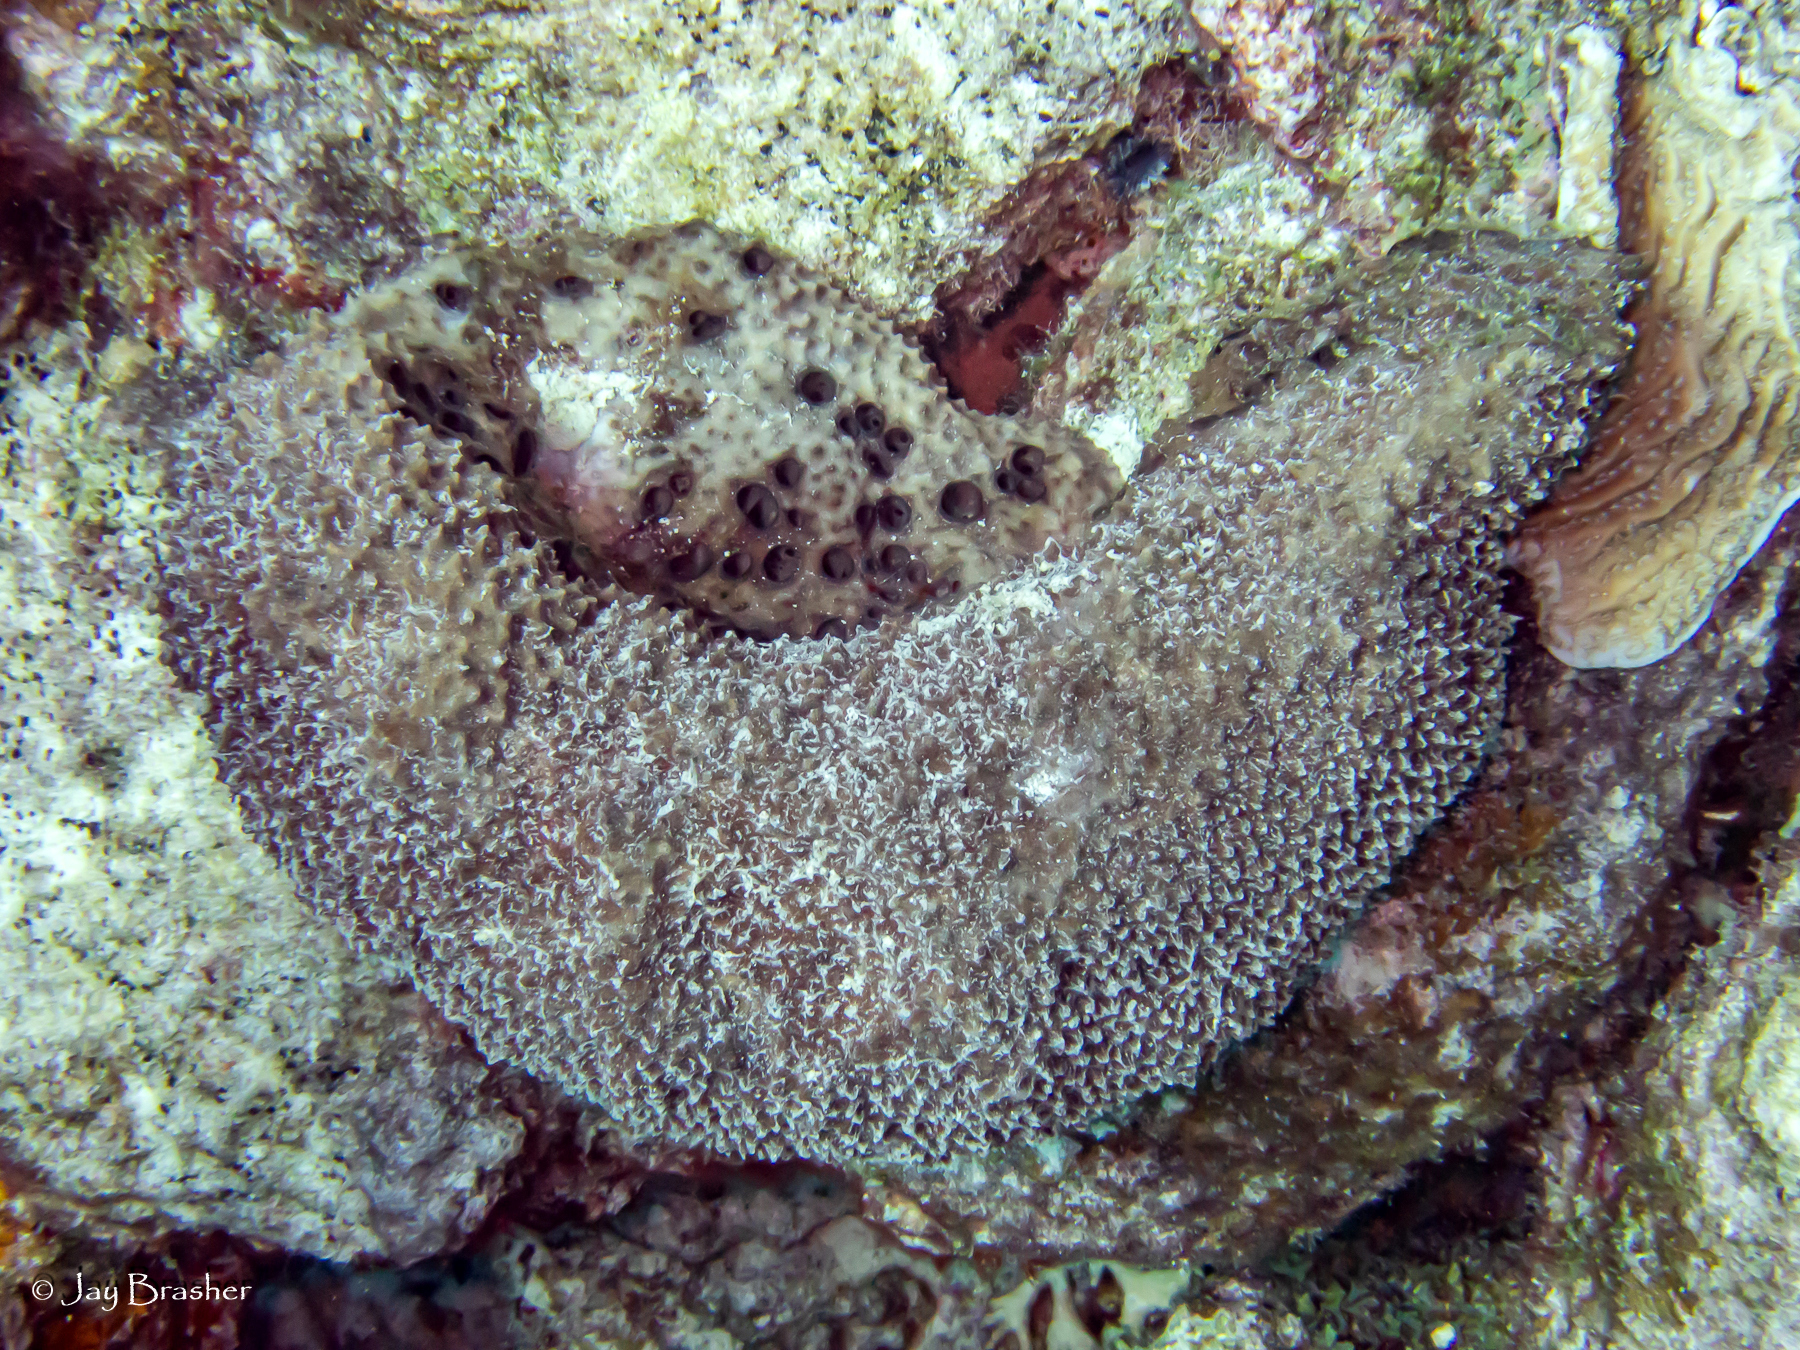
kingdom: Animalia
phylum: Porifera
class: Demospongiae
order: Dictyoceratida
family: Irciniidae
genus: Ircinia
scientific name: Ircinia felix
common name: Stinker sponge
